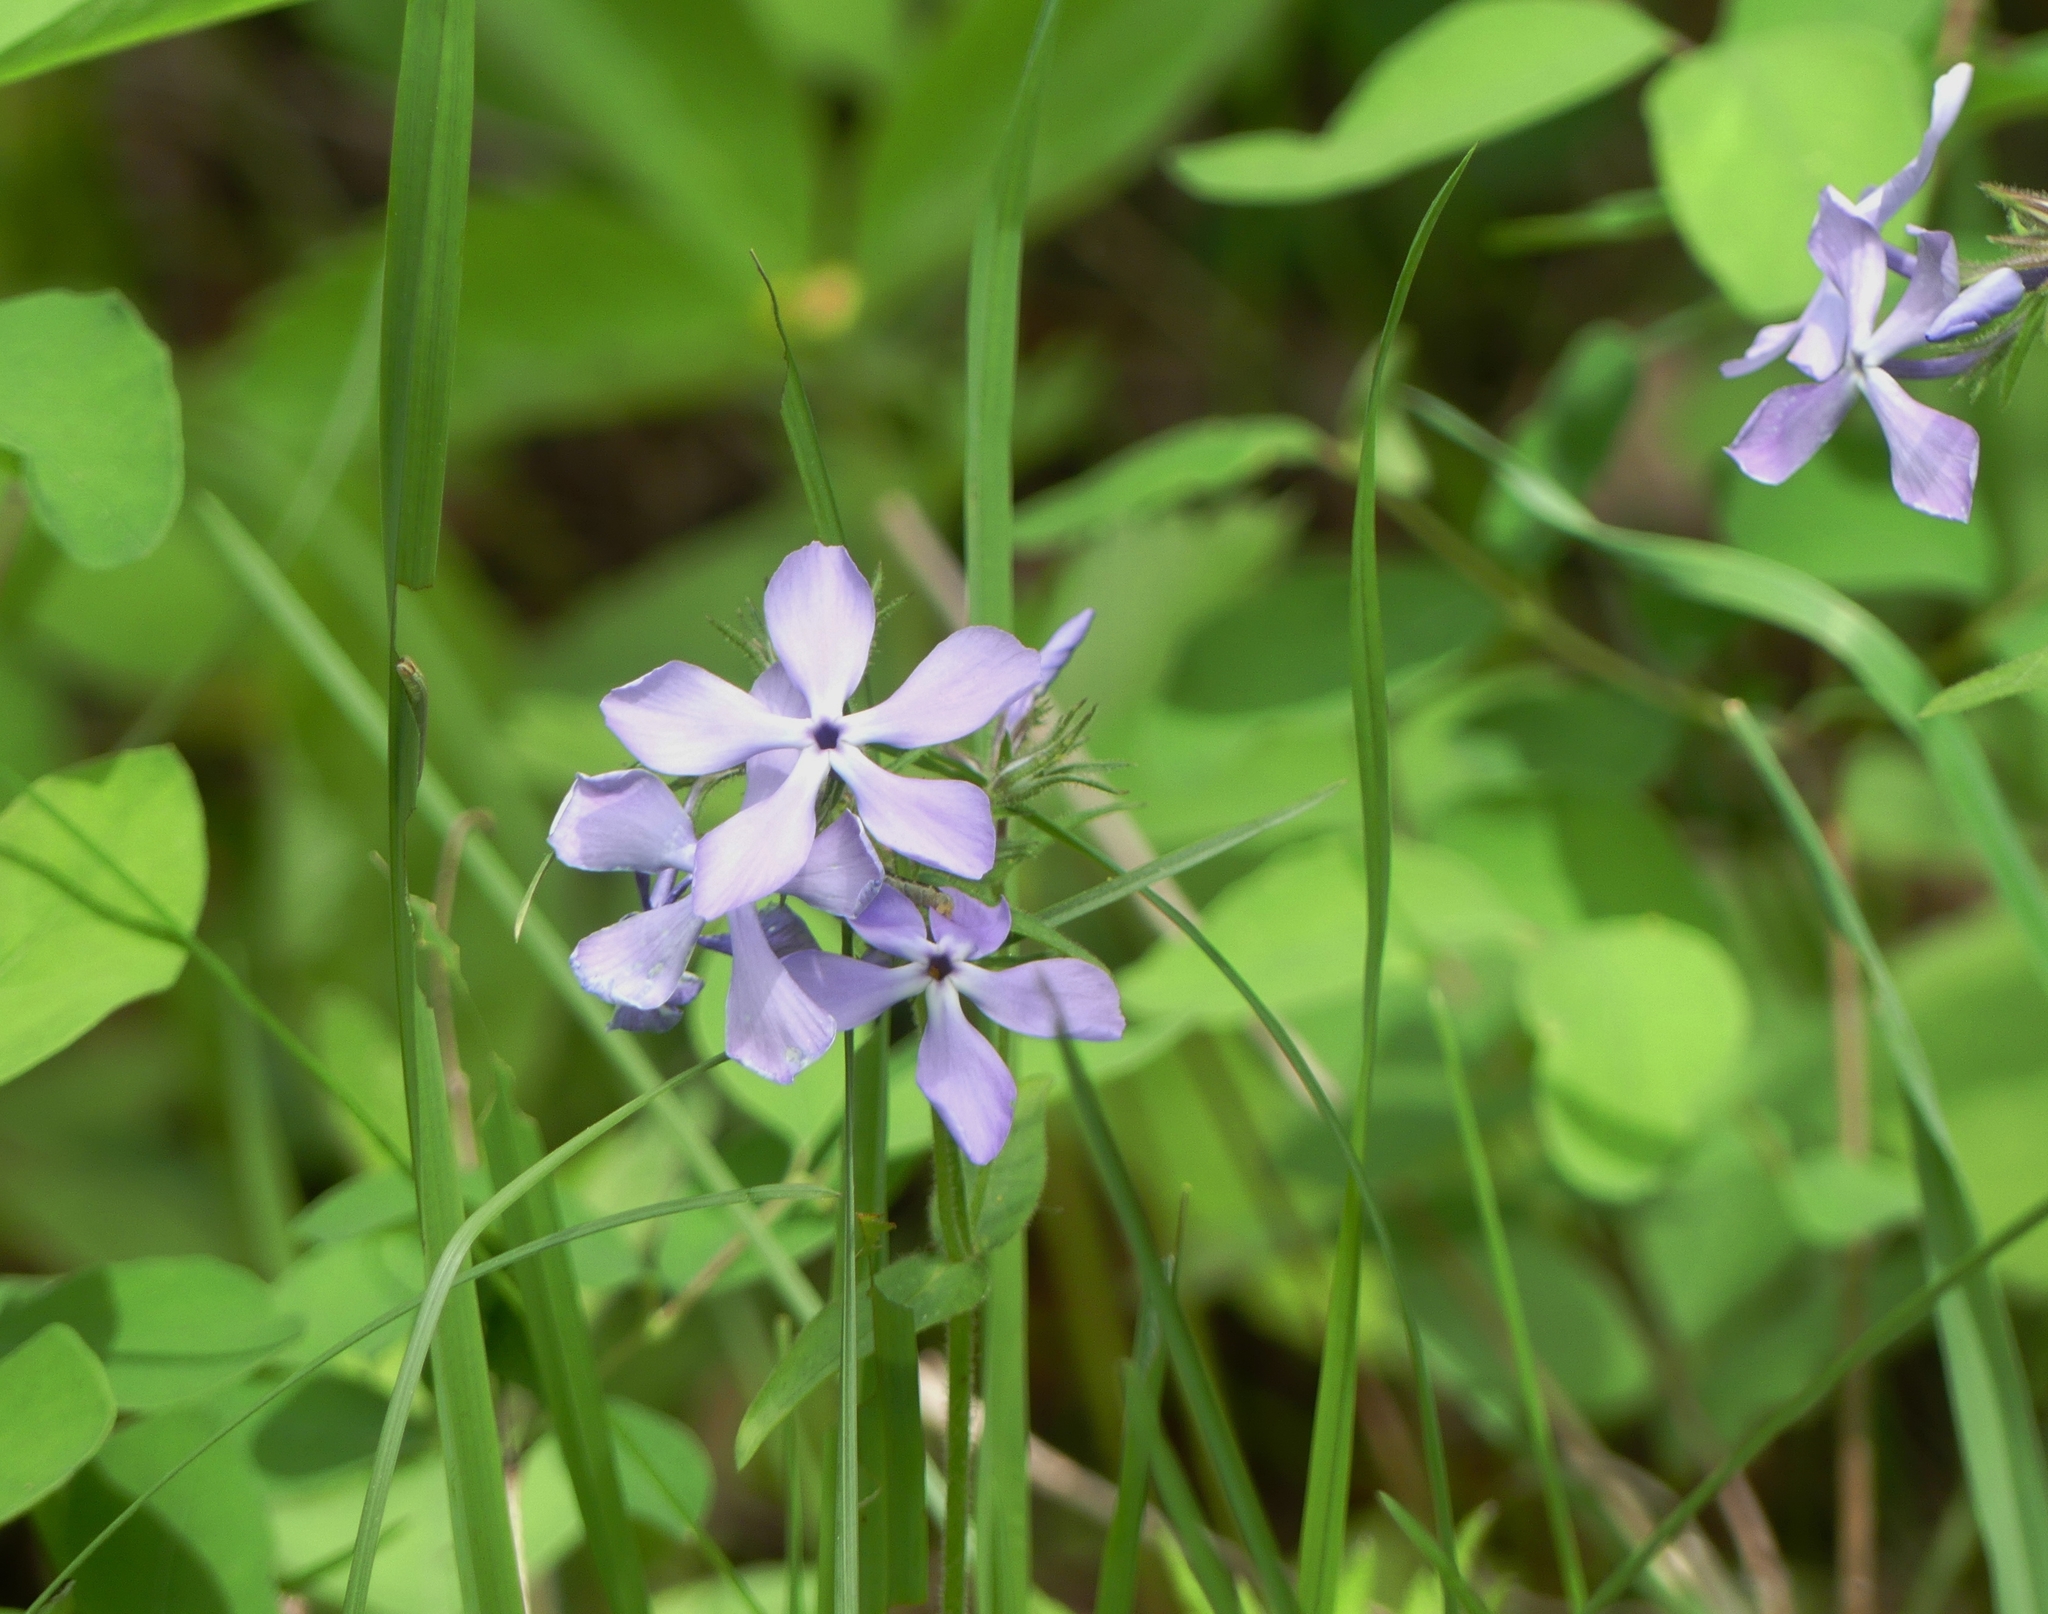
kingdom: Plantae
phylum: Tracheophyta
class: Magnoliopsida
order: Ericales
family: Polemoniaceae
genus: Phlox
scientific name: Phlox divaricata
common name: Blue phlox
